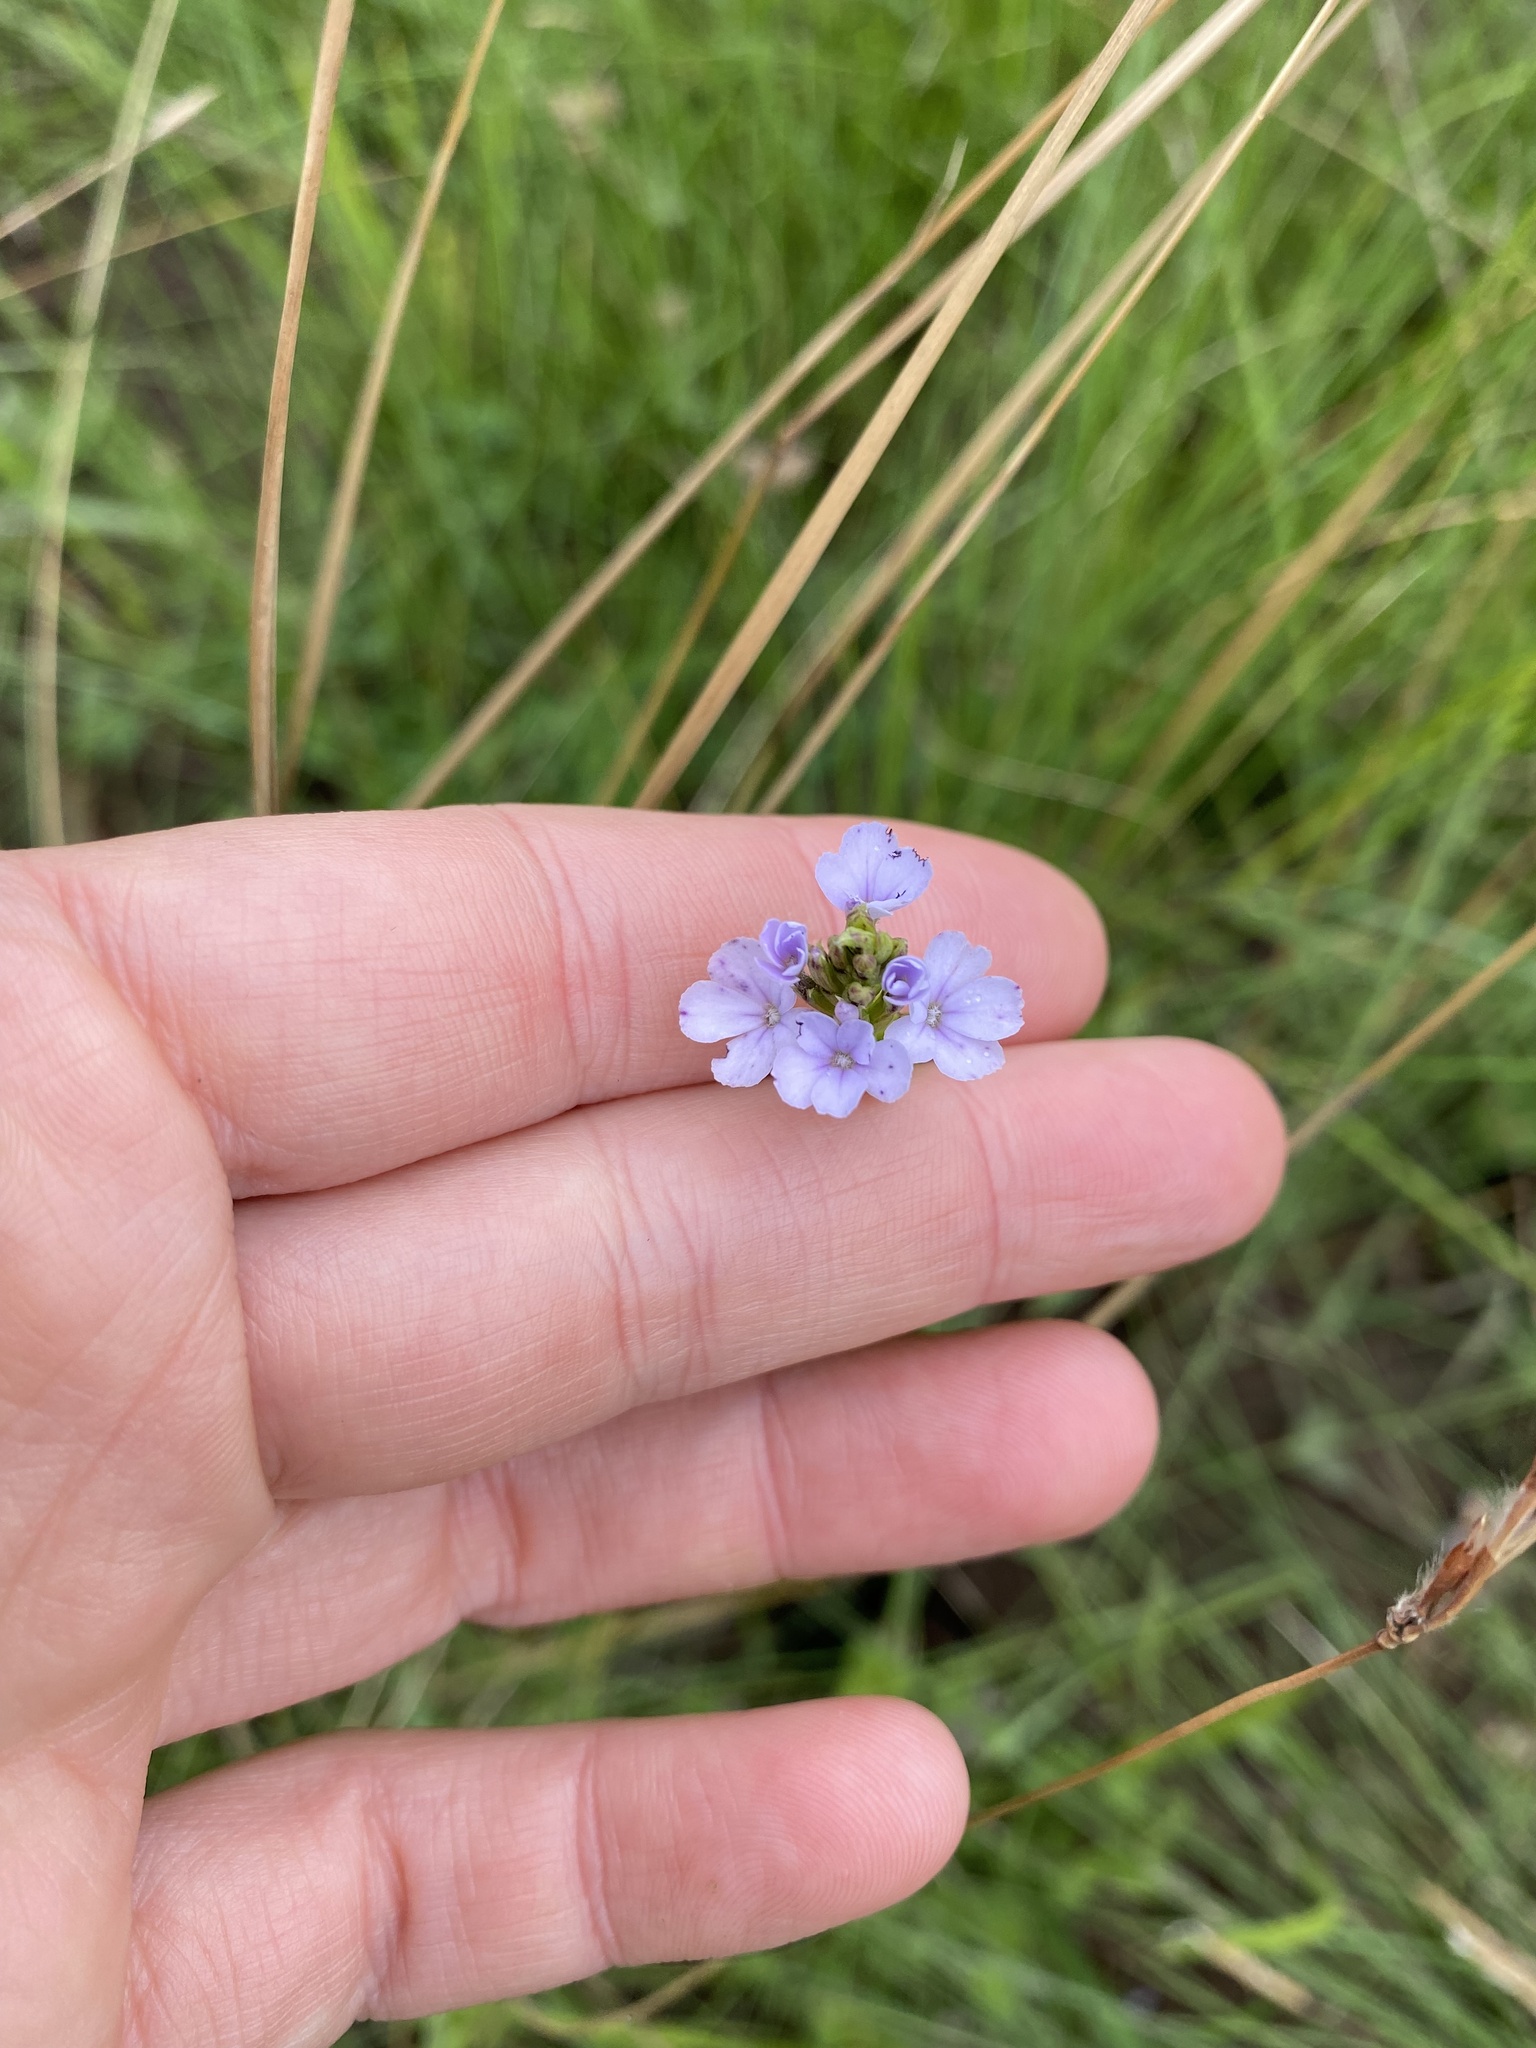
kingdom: Plantae
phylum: Tracheophyta
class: Magnoliopsida
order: Lamiales
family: Orobanchaceae
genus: Buchnera
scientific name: Buchnera dura
